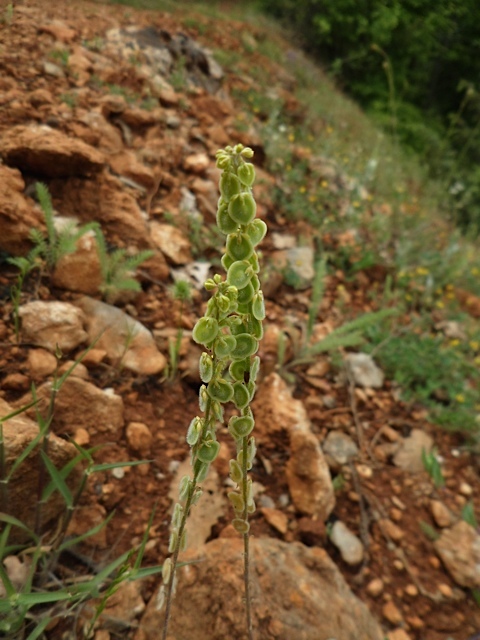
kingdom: Plantae
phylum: Tracheophyta
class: Magnoliopsida
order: Brassicales
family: Brassicaceae
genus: Clypeola
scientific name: Clypeola jonthlaspi
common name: Disk cress
